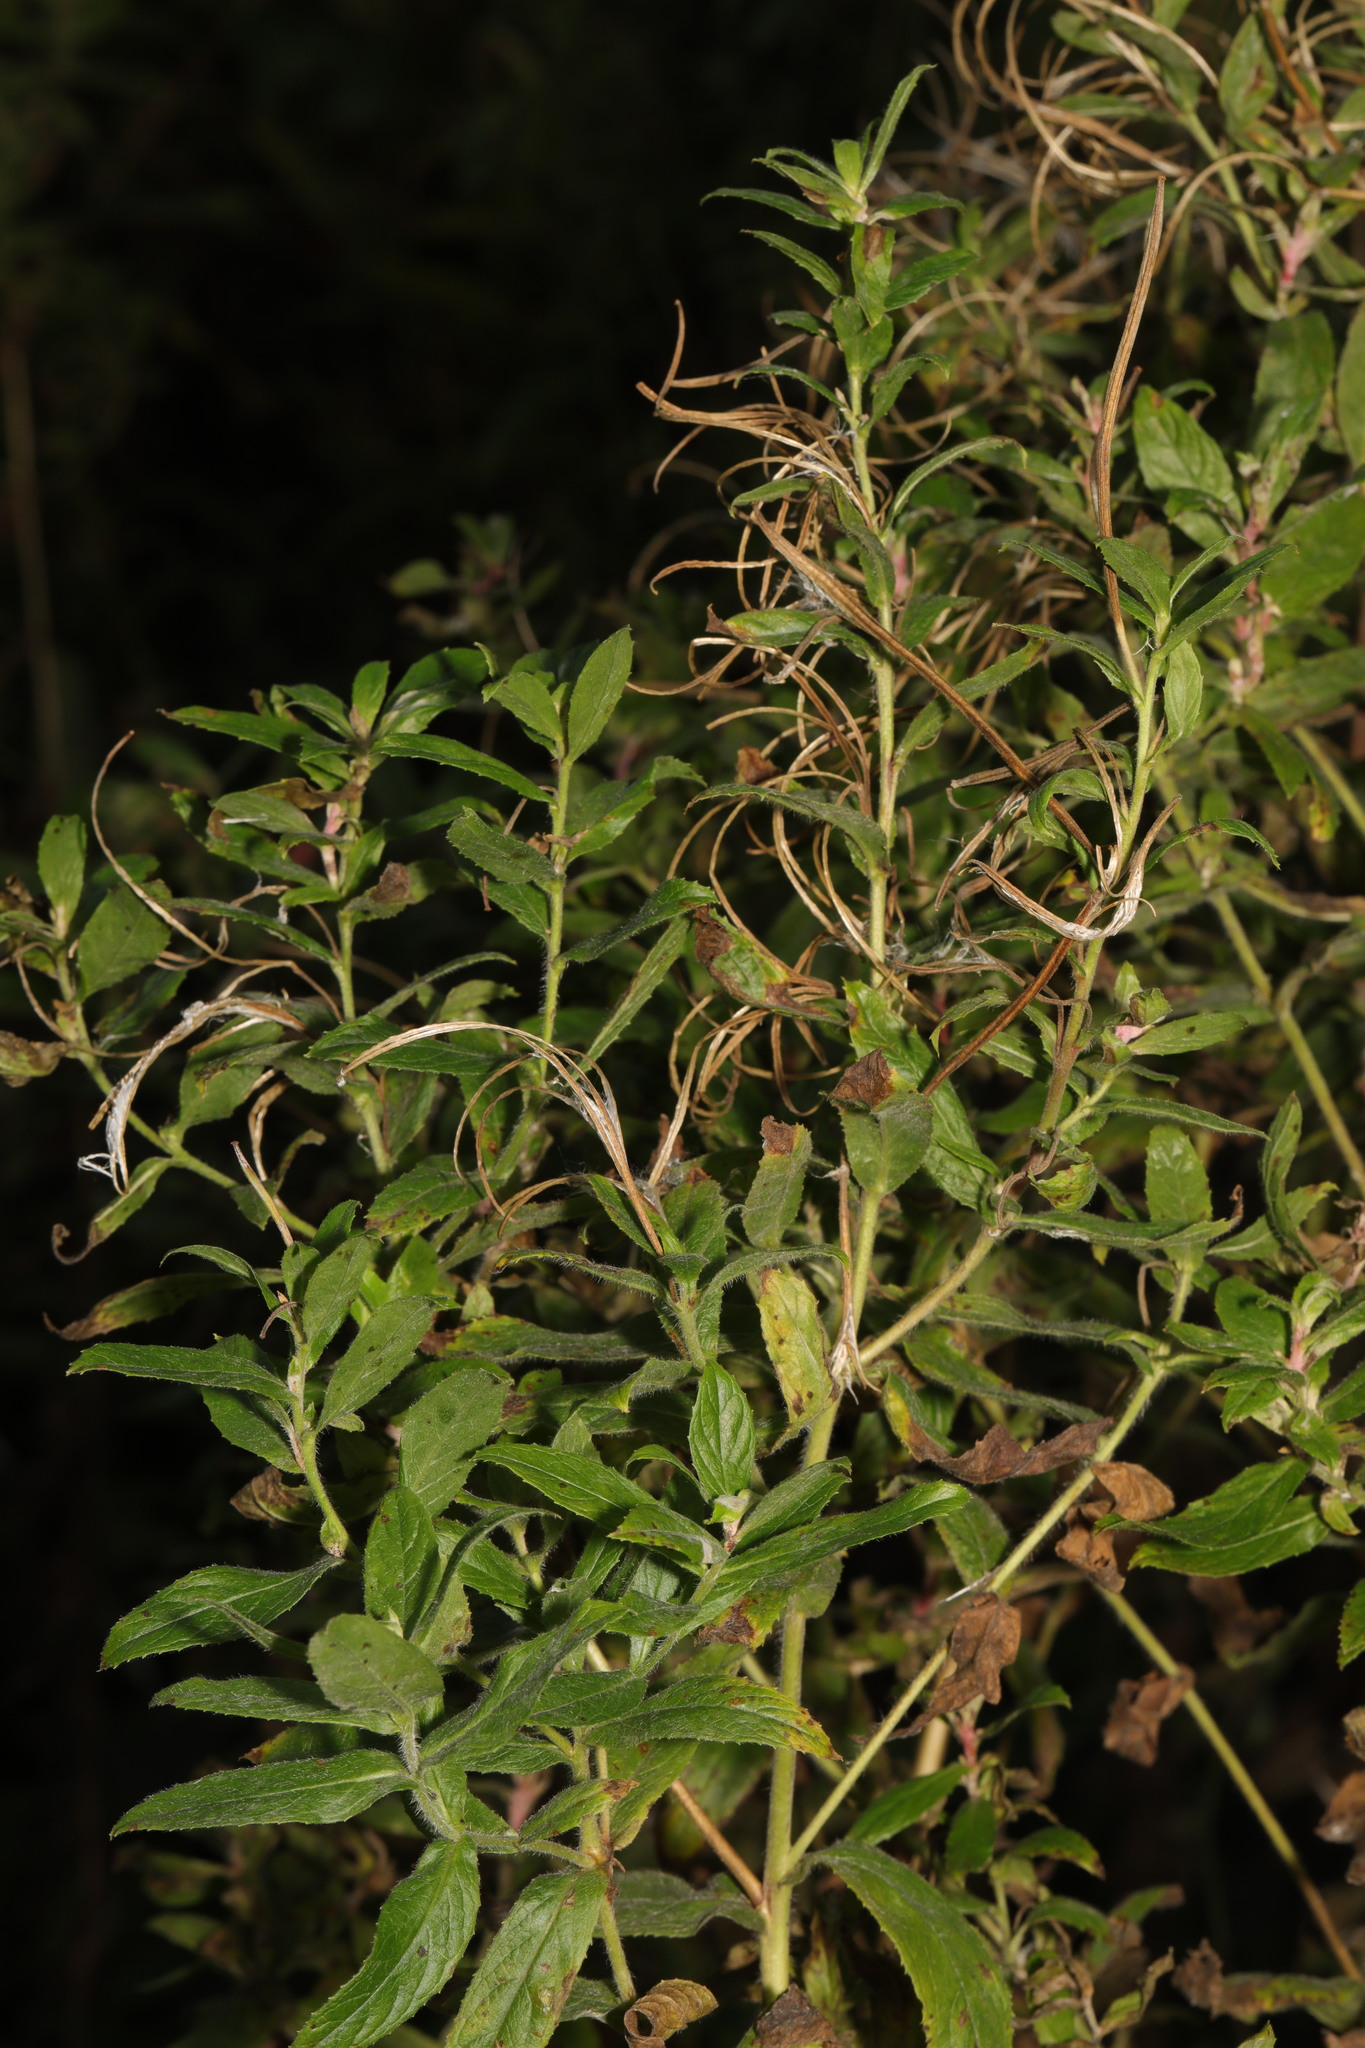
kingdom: Plantae
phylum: Tracheophyta
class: Magnoliopsida
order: Myrtales
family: Onagraceae
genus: Epilobium
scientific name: Epilobium hirsutum
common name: Great willowherb
